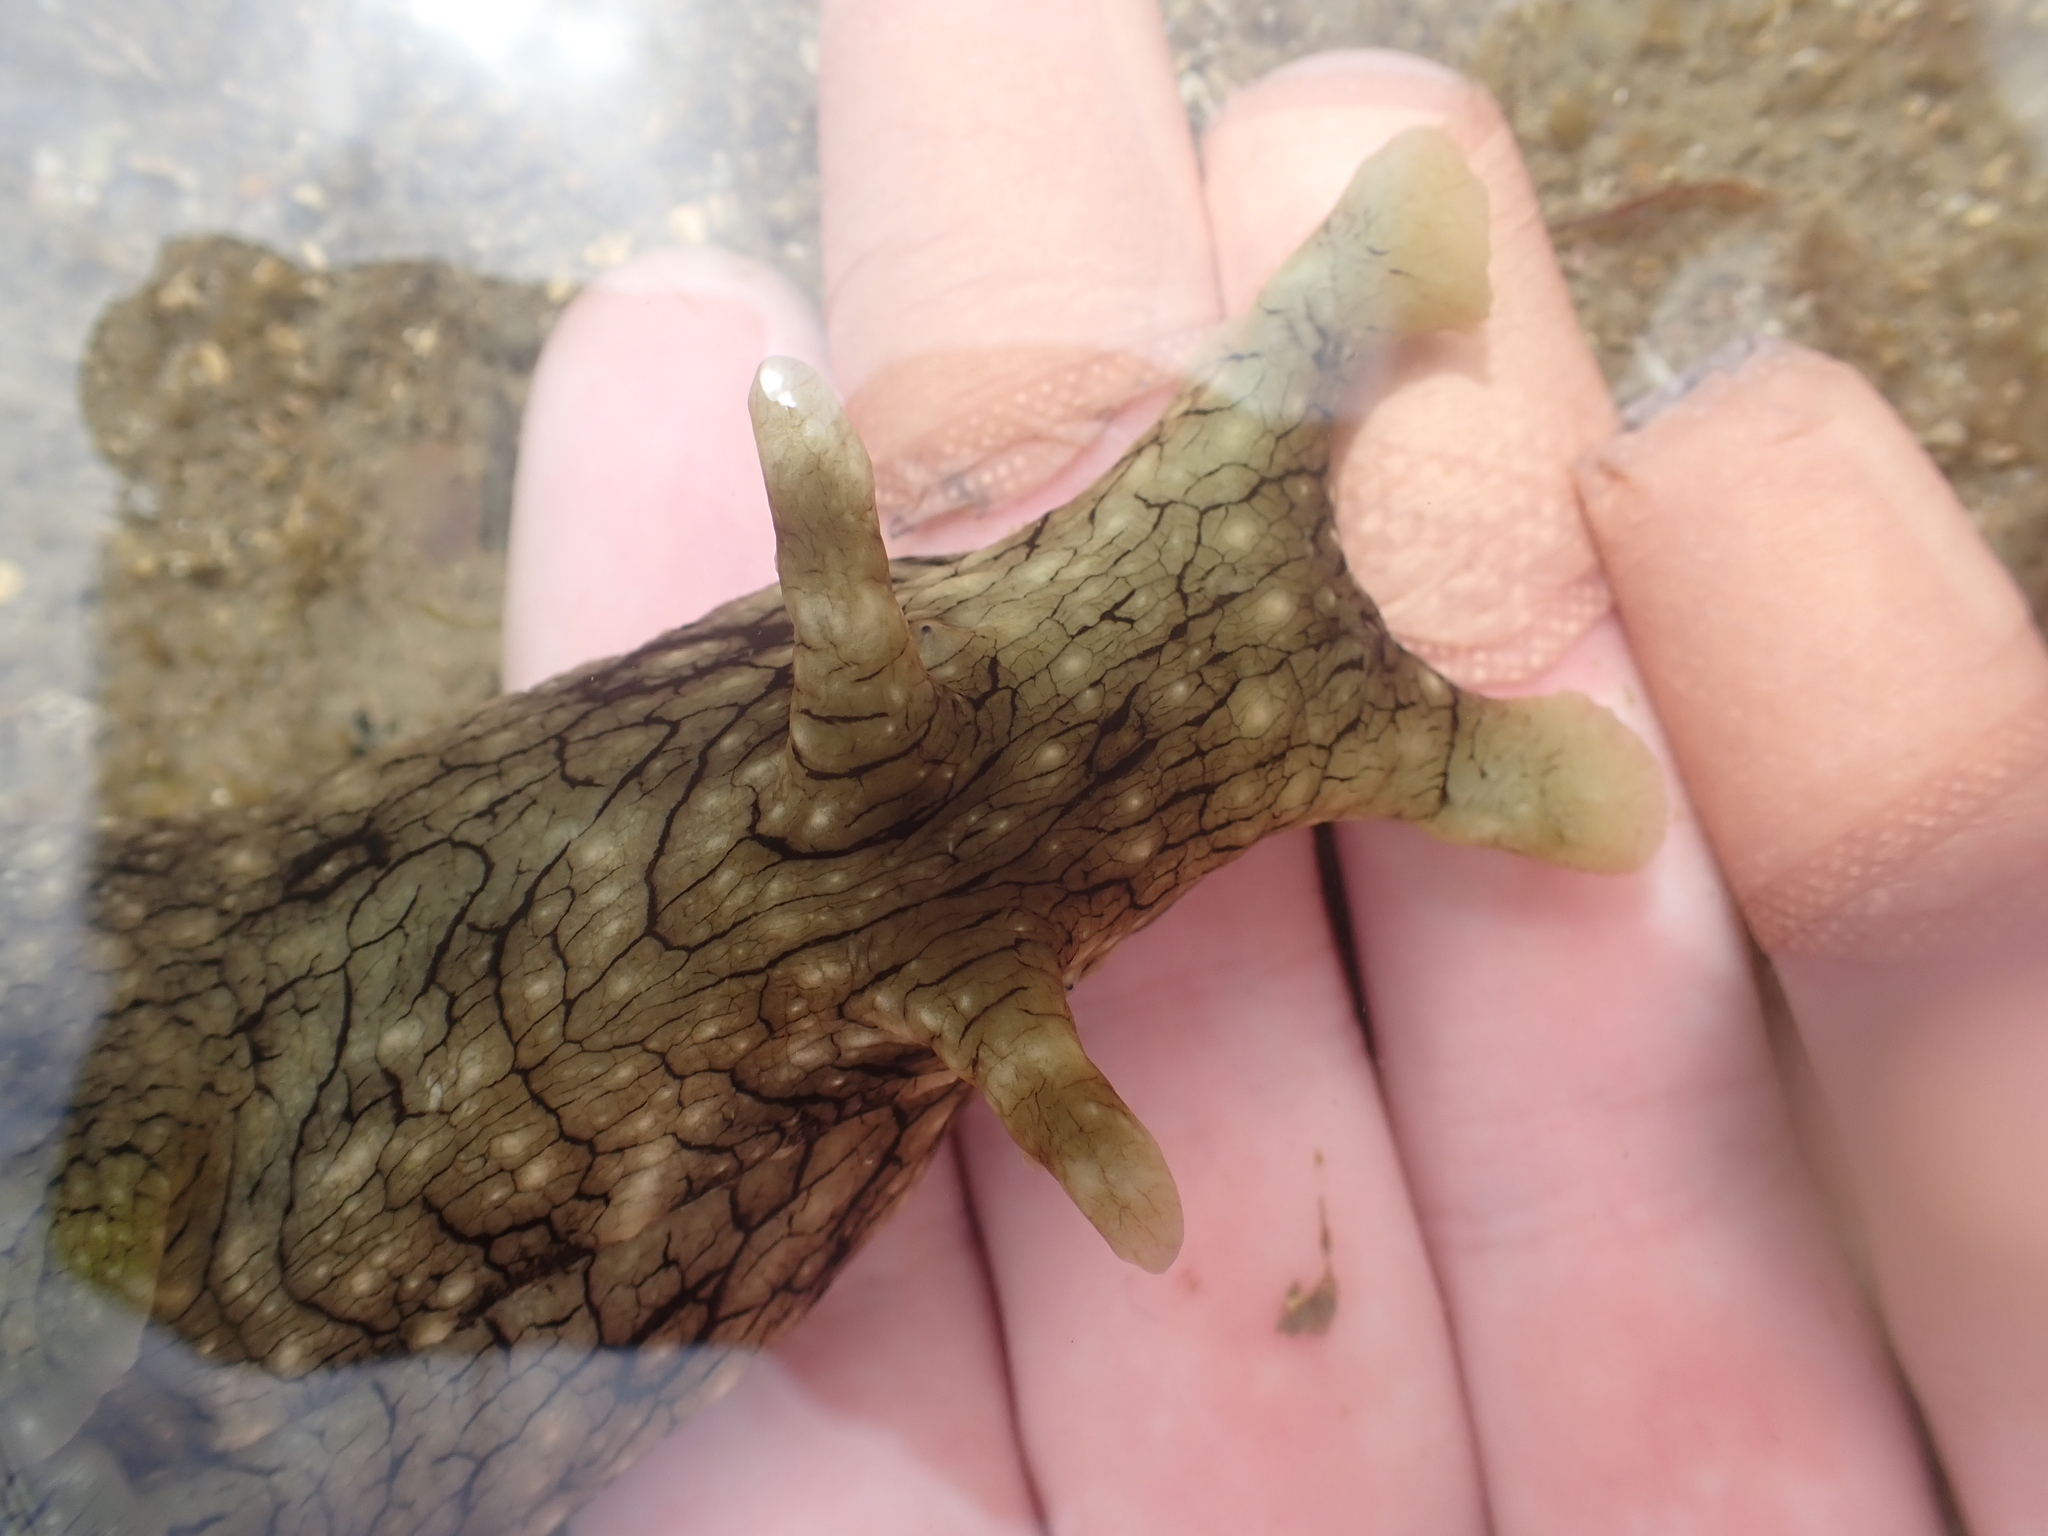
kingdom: Animalia
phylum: Mollusca
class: Gastropoda
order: Aplysiida
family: Aplysiidae
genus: Aplysia
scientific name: Aplysia argus
